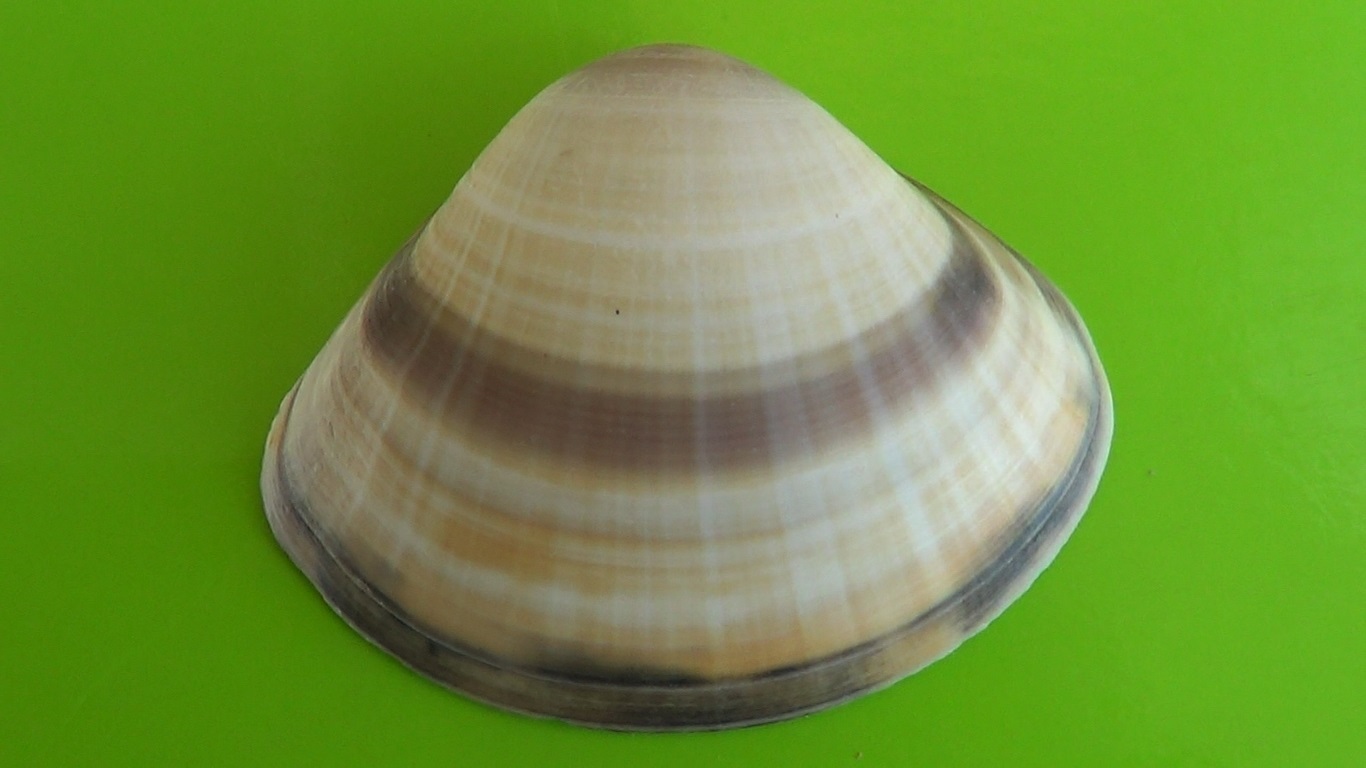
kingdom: Animalia
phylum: Mollusca
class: Bivalvia
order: Venerida
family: Mactridae
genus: Mactra
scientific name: Mactra stultorum
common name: Rayed trough shell
